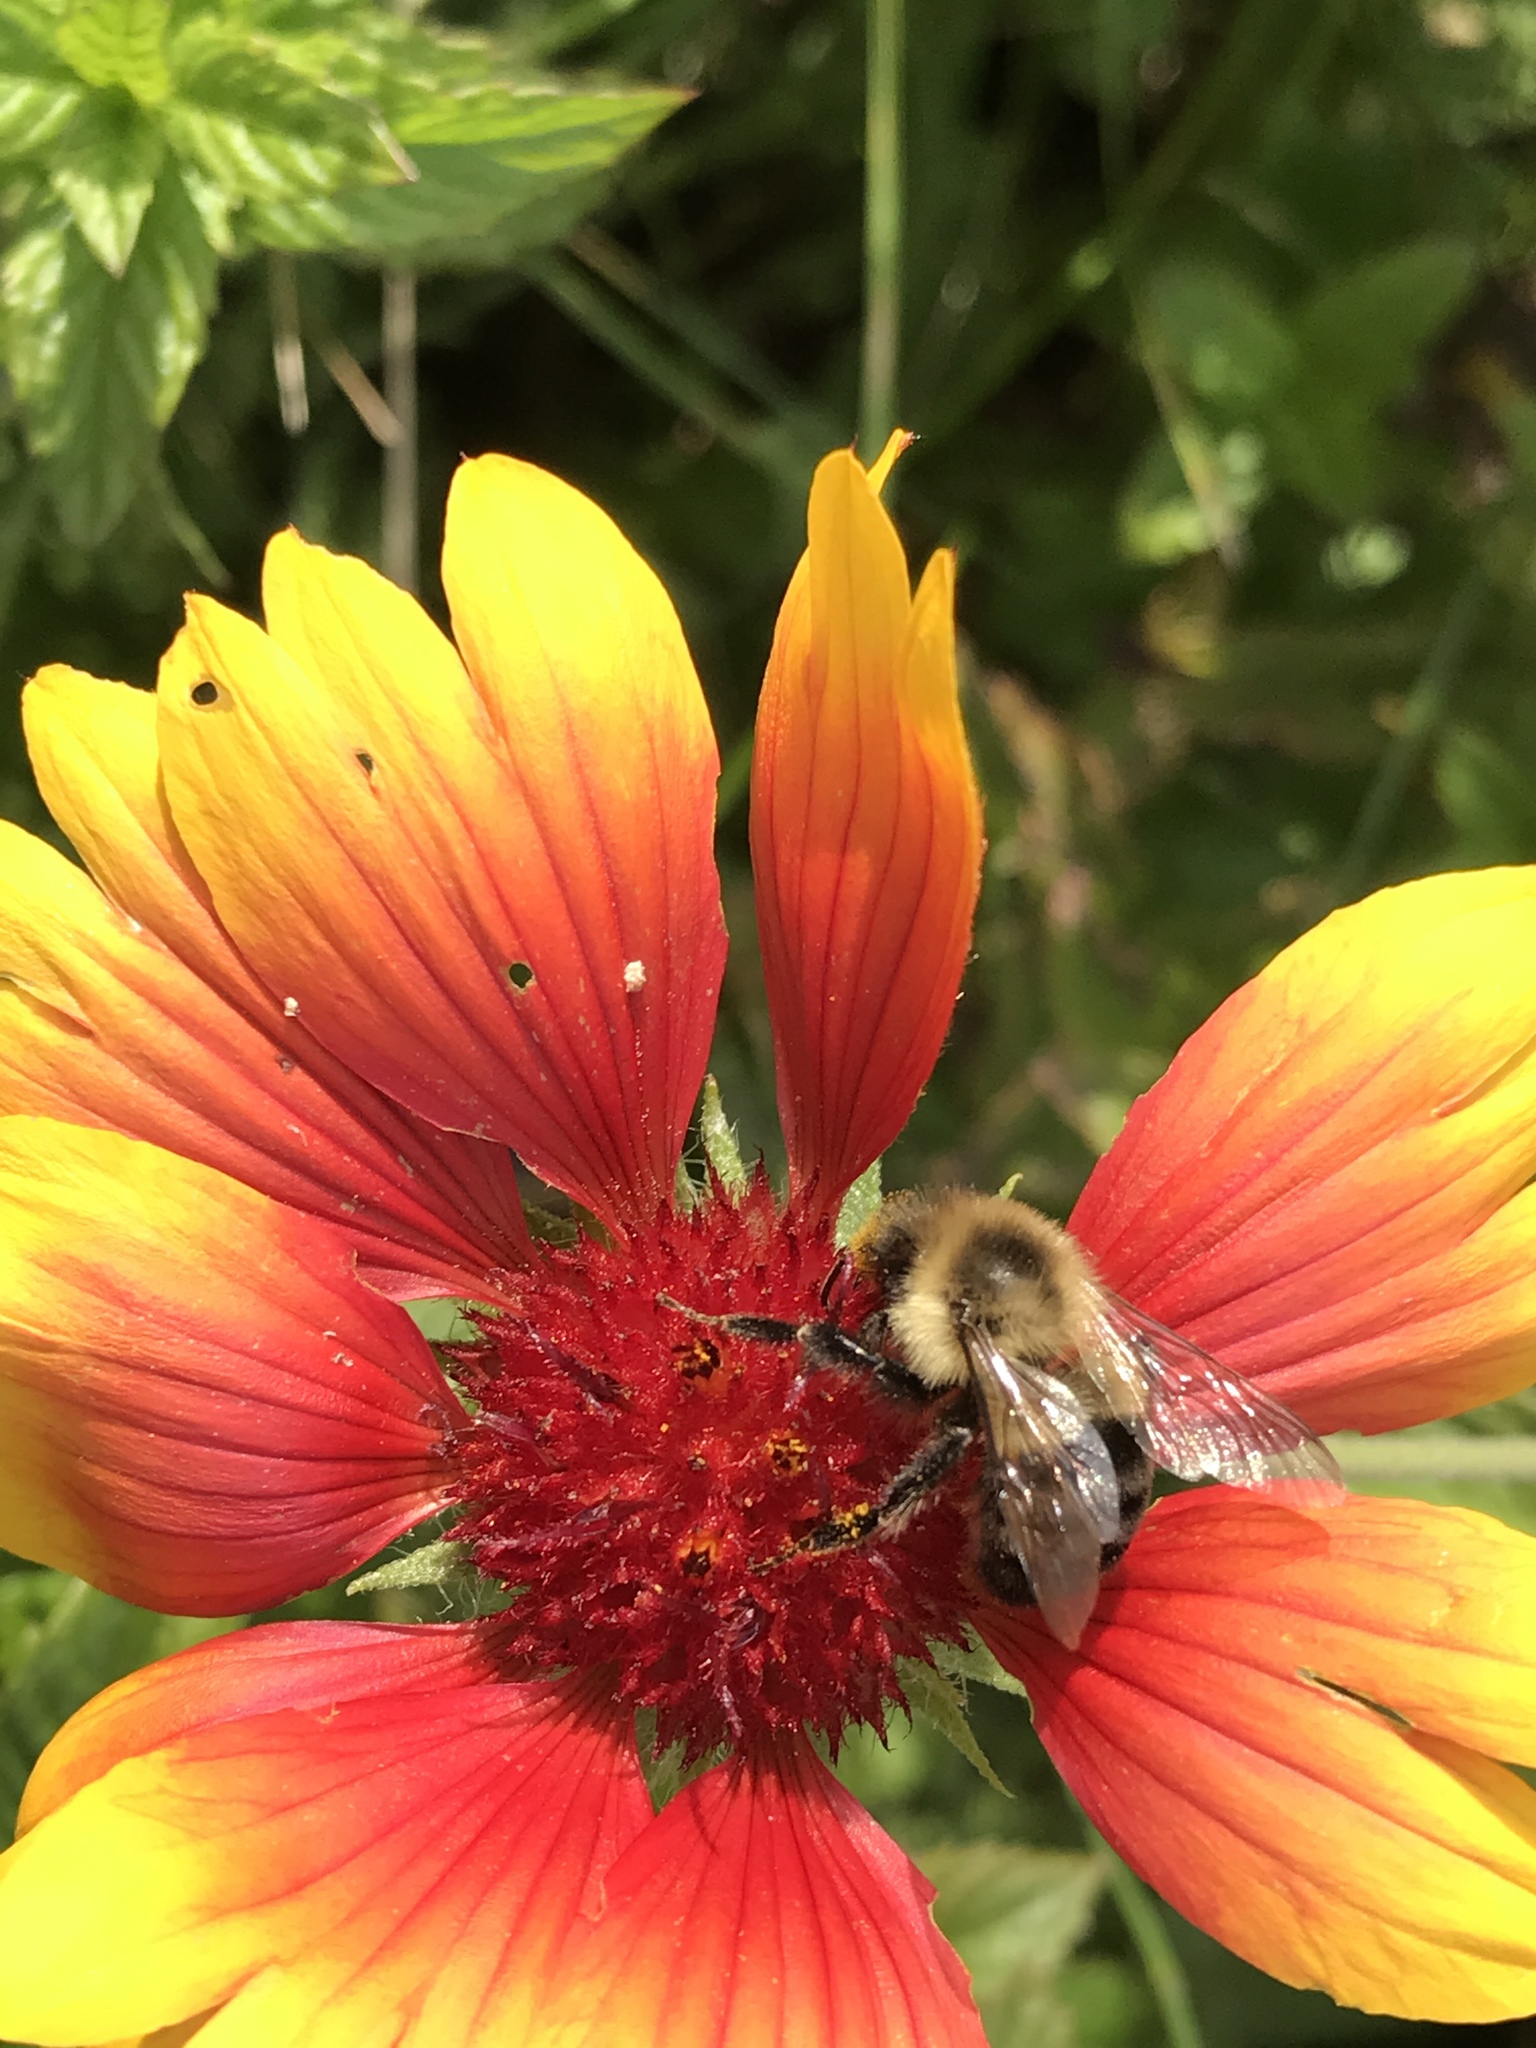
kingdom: Animalia
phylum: Arthropoda
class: Insecta
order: Hymenoptera
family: Apidae
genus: Bombus
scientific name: Bombus impatiens
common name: Common eastern bumble bee
